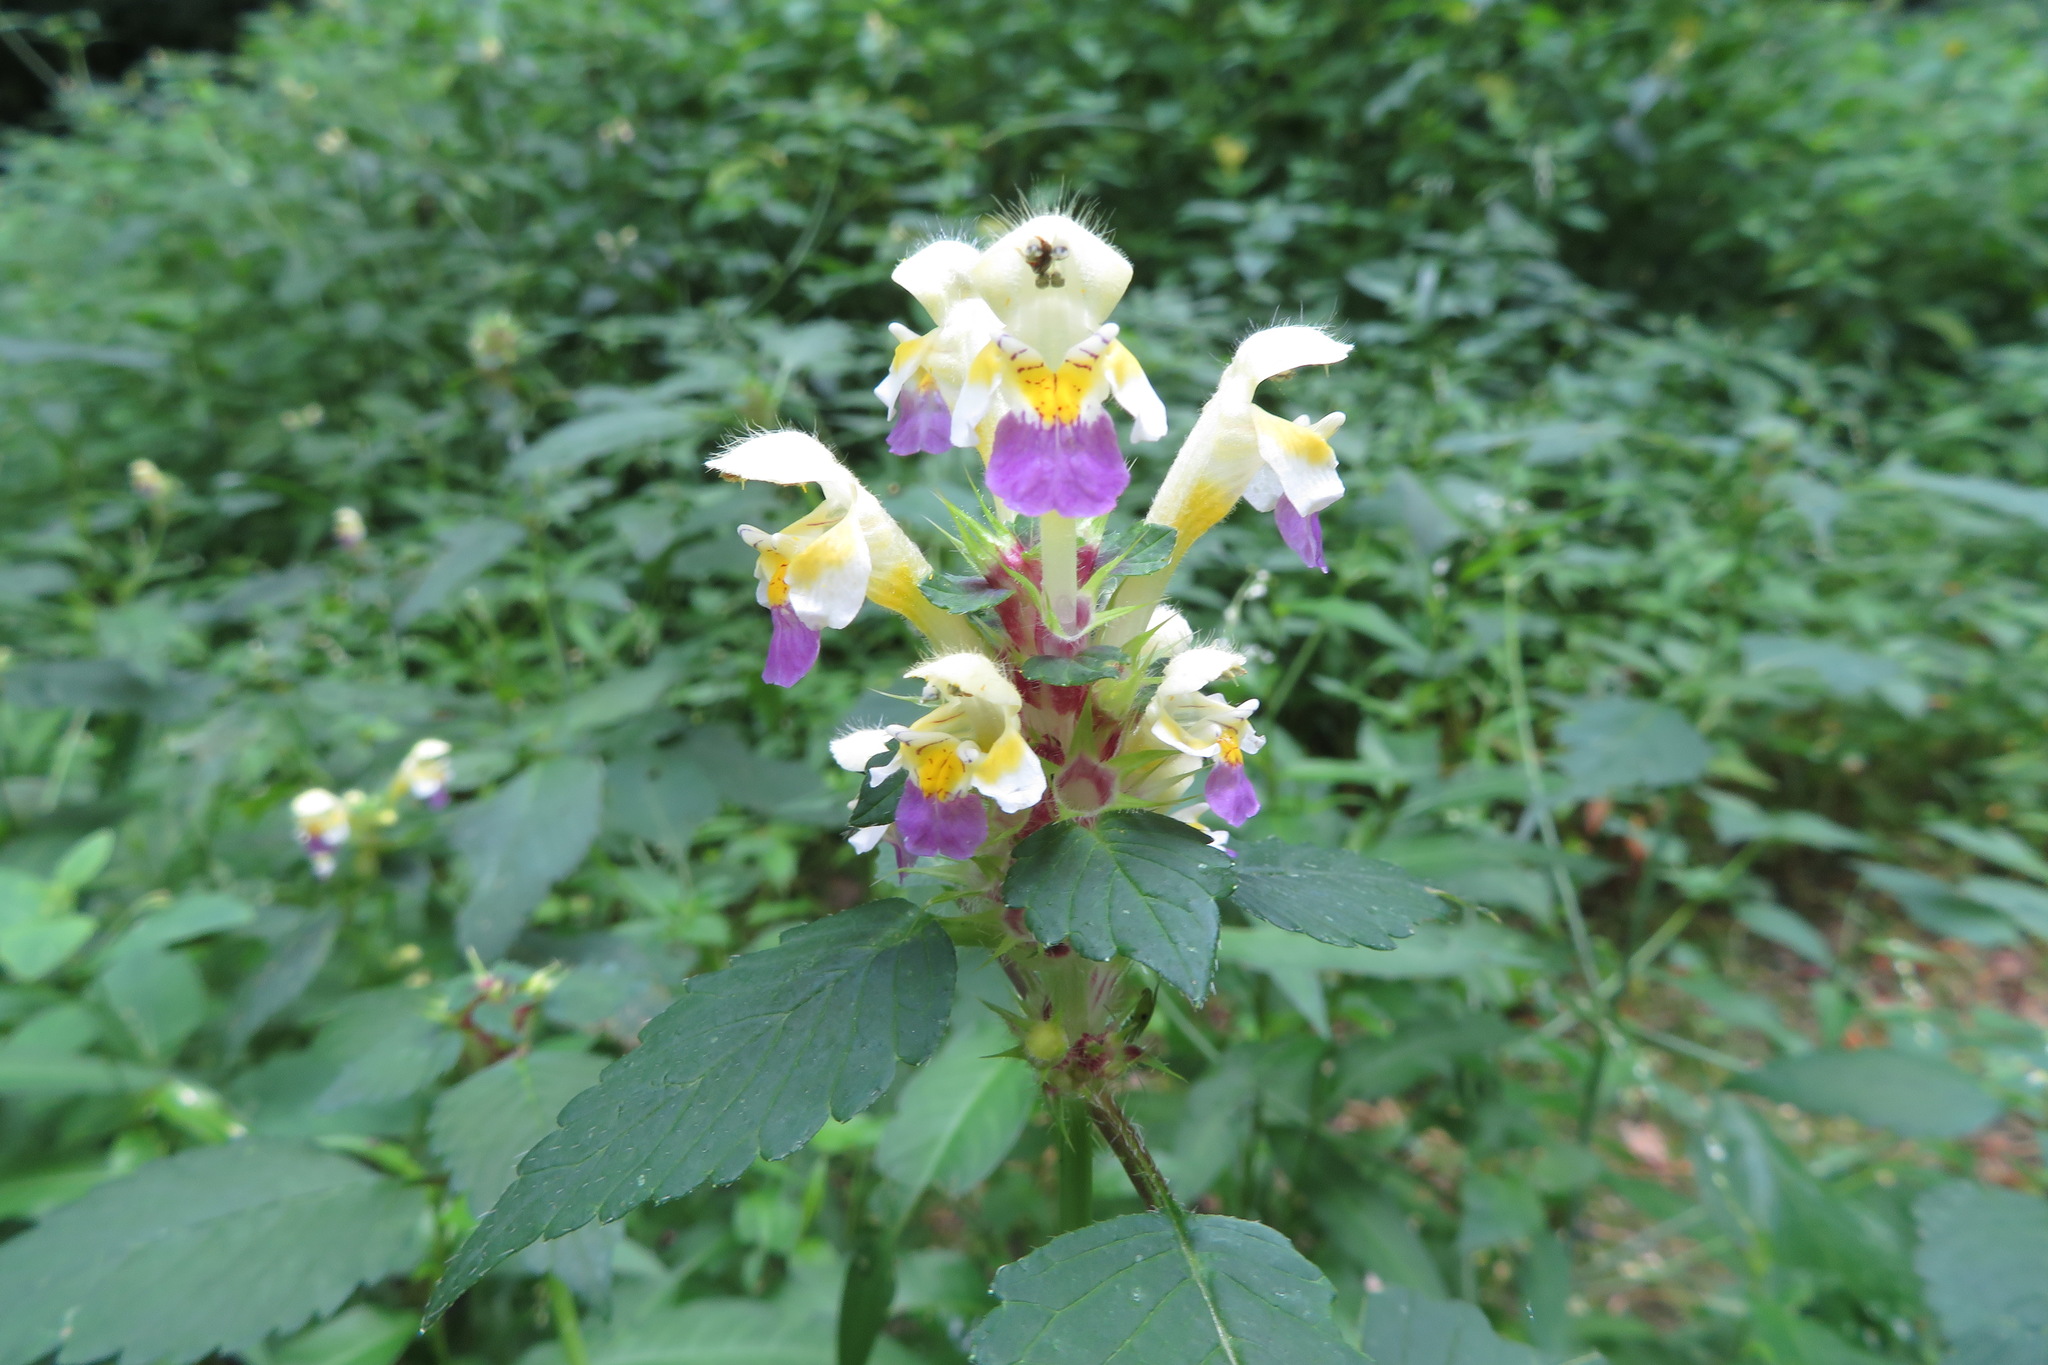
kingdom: Plantae
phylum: Tracheophyta
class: Magnoliopsida
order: Lamiales
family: Lamiaceae
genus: Galeopsis
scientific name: Galeopsis speciosa
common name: Large-flowered hemp-nettle
